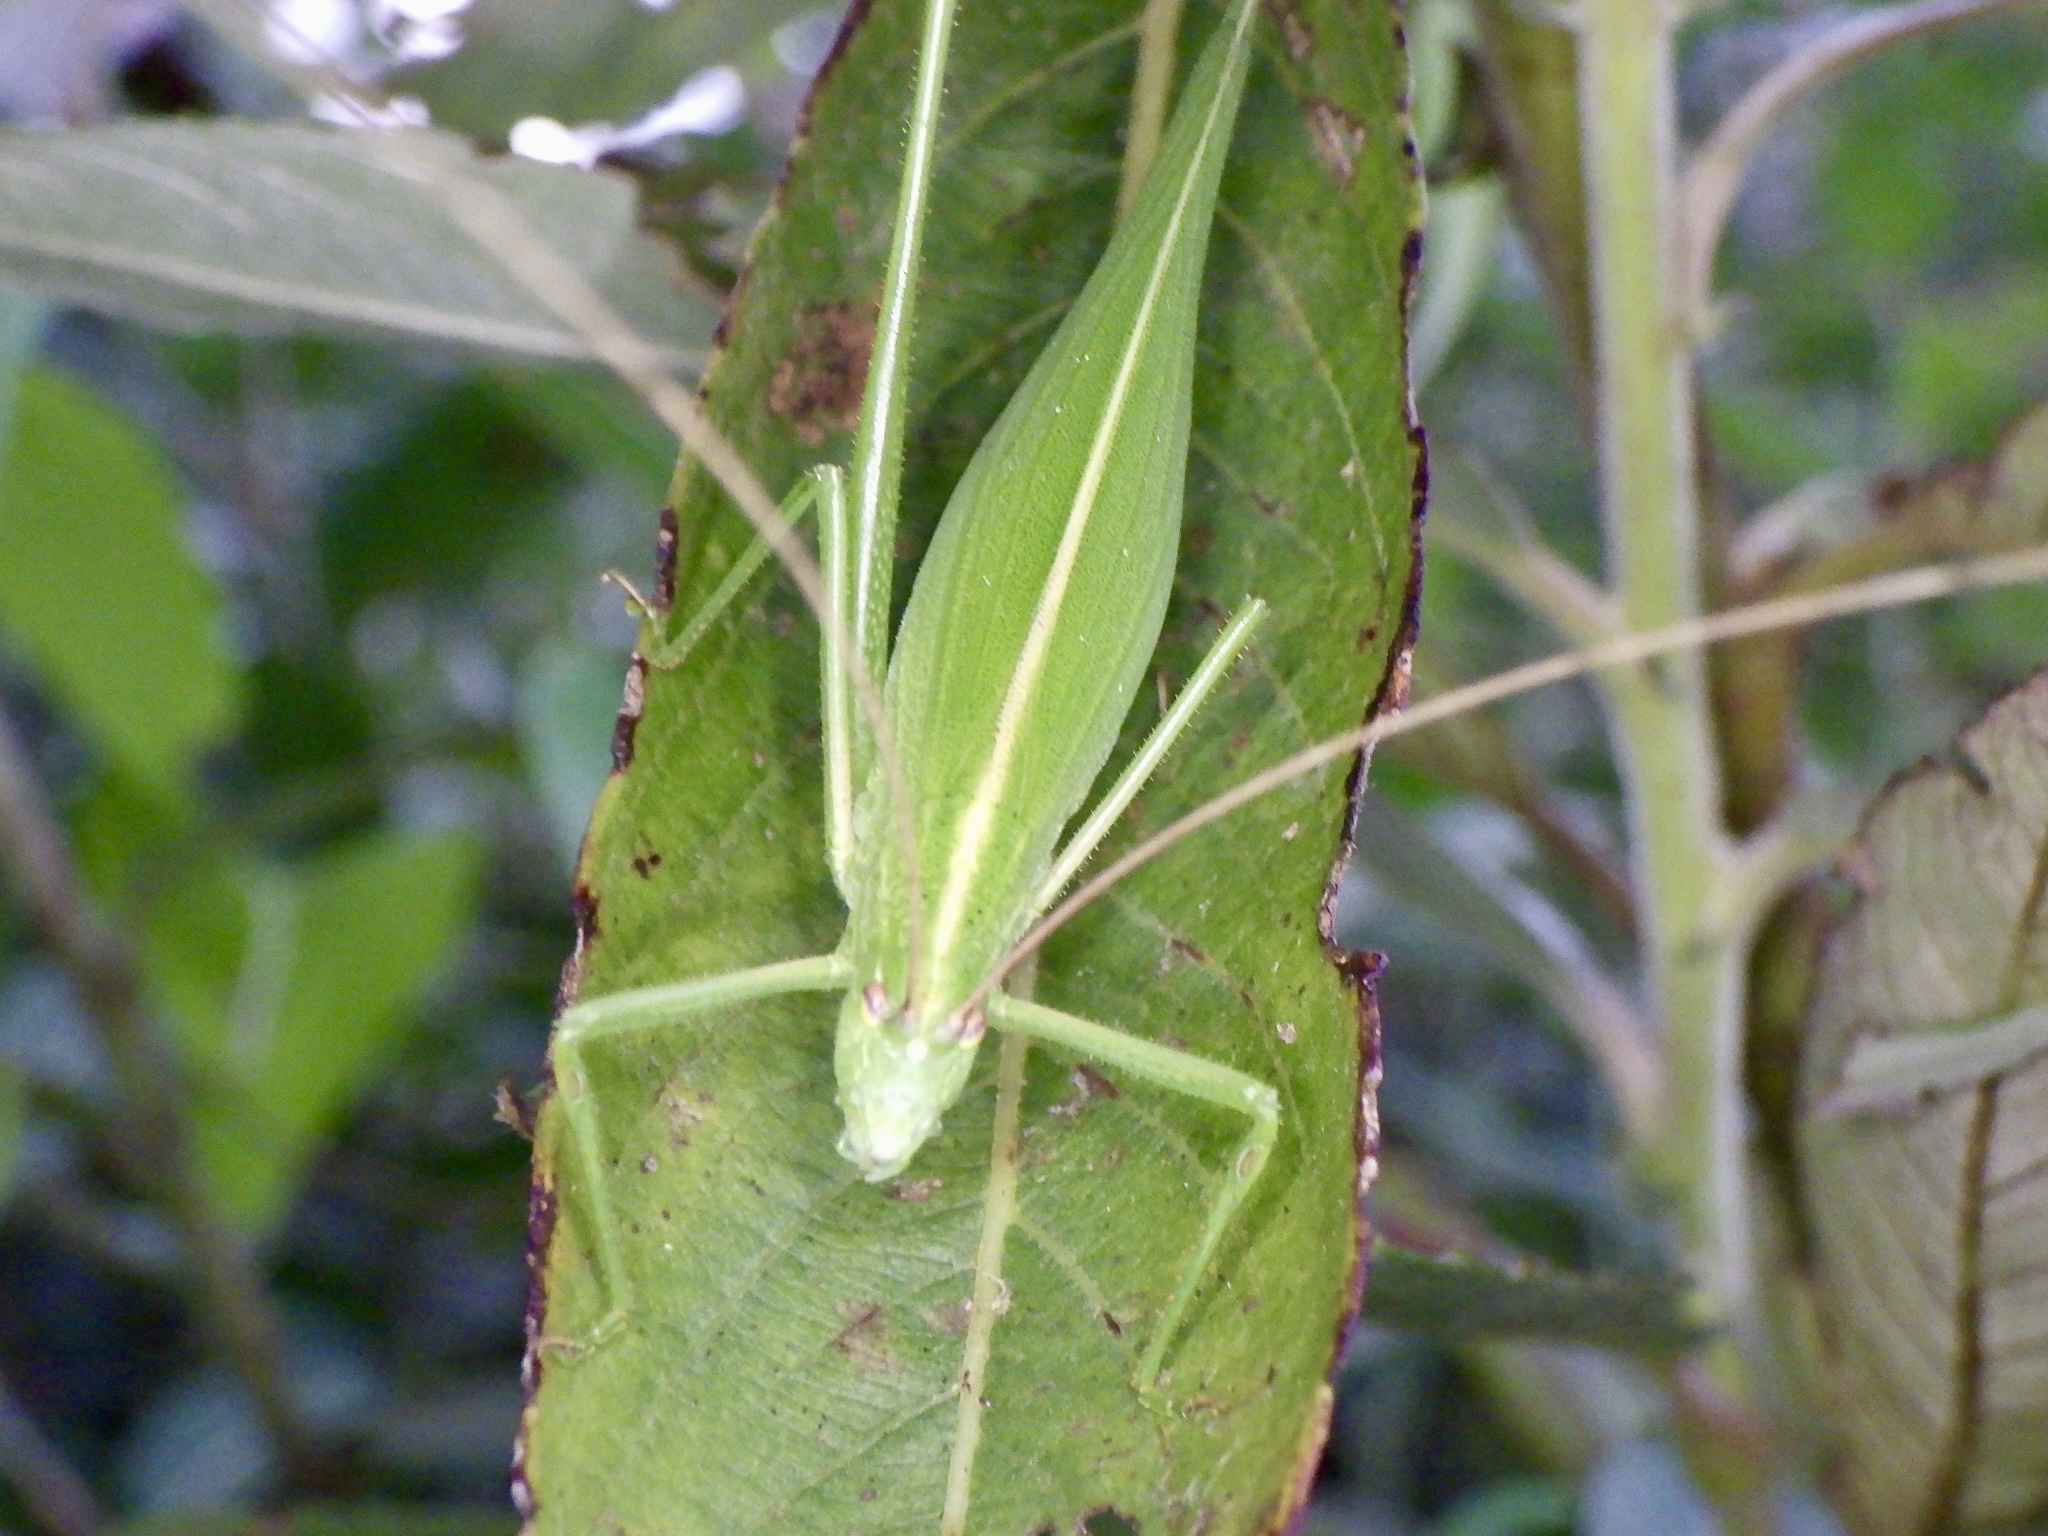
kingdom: Animalia
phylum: Arthropoda
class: Insecta
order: Orthoptera
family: Tettigoniidae
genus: Ducetia
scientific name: Ducetia japonica
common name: Pacific ducetia
